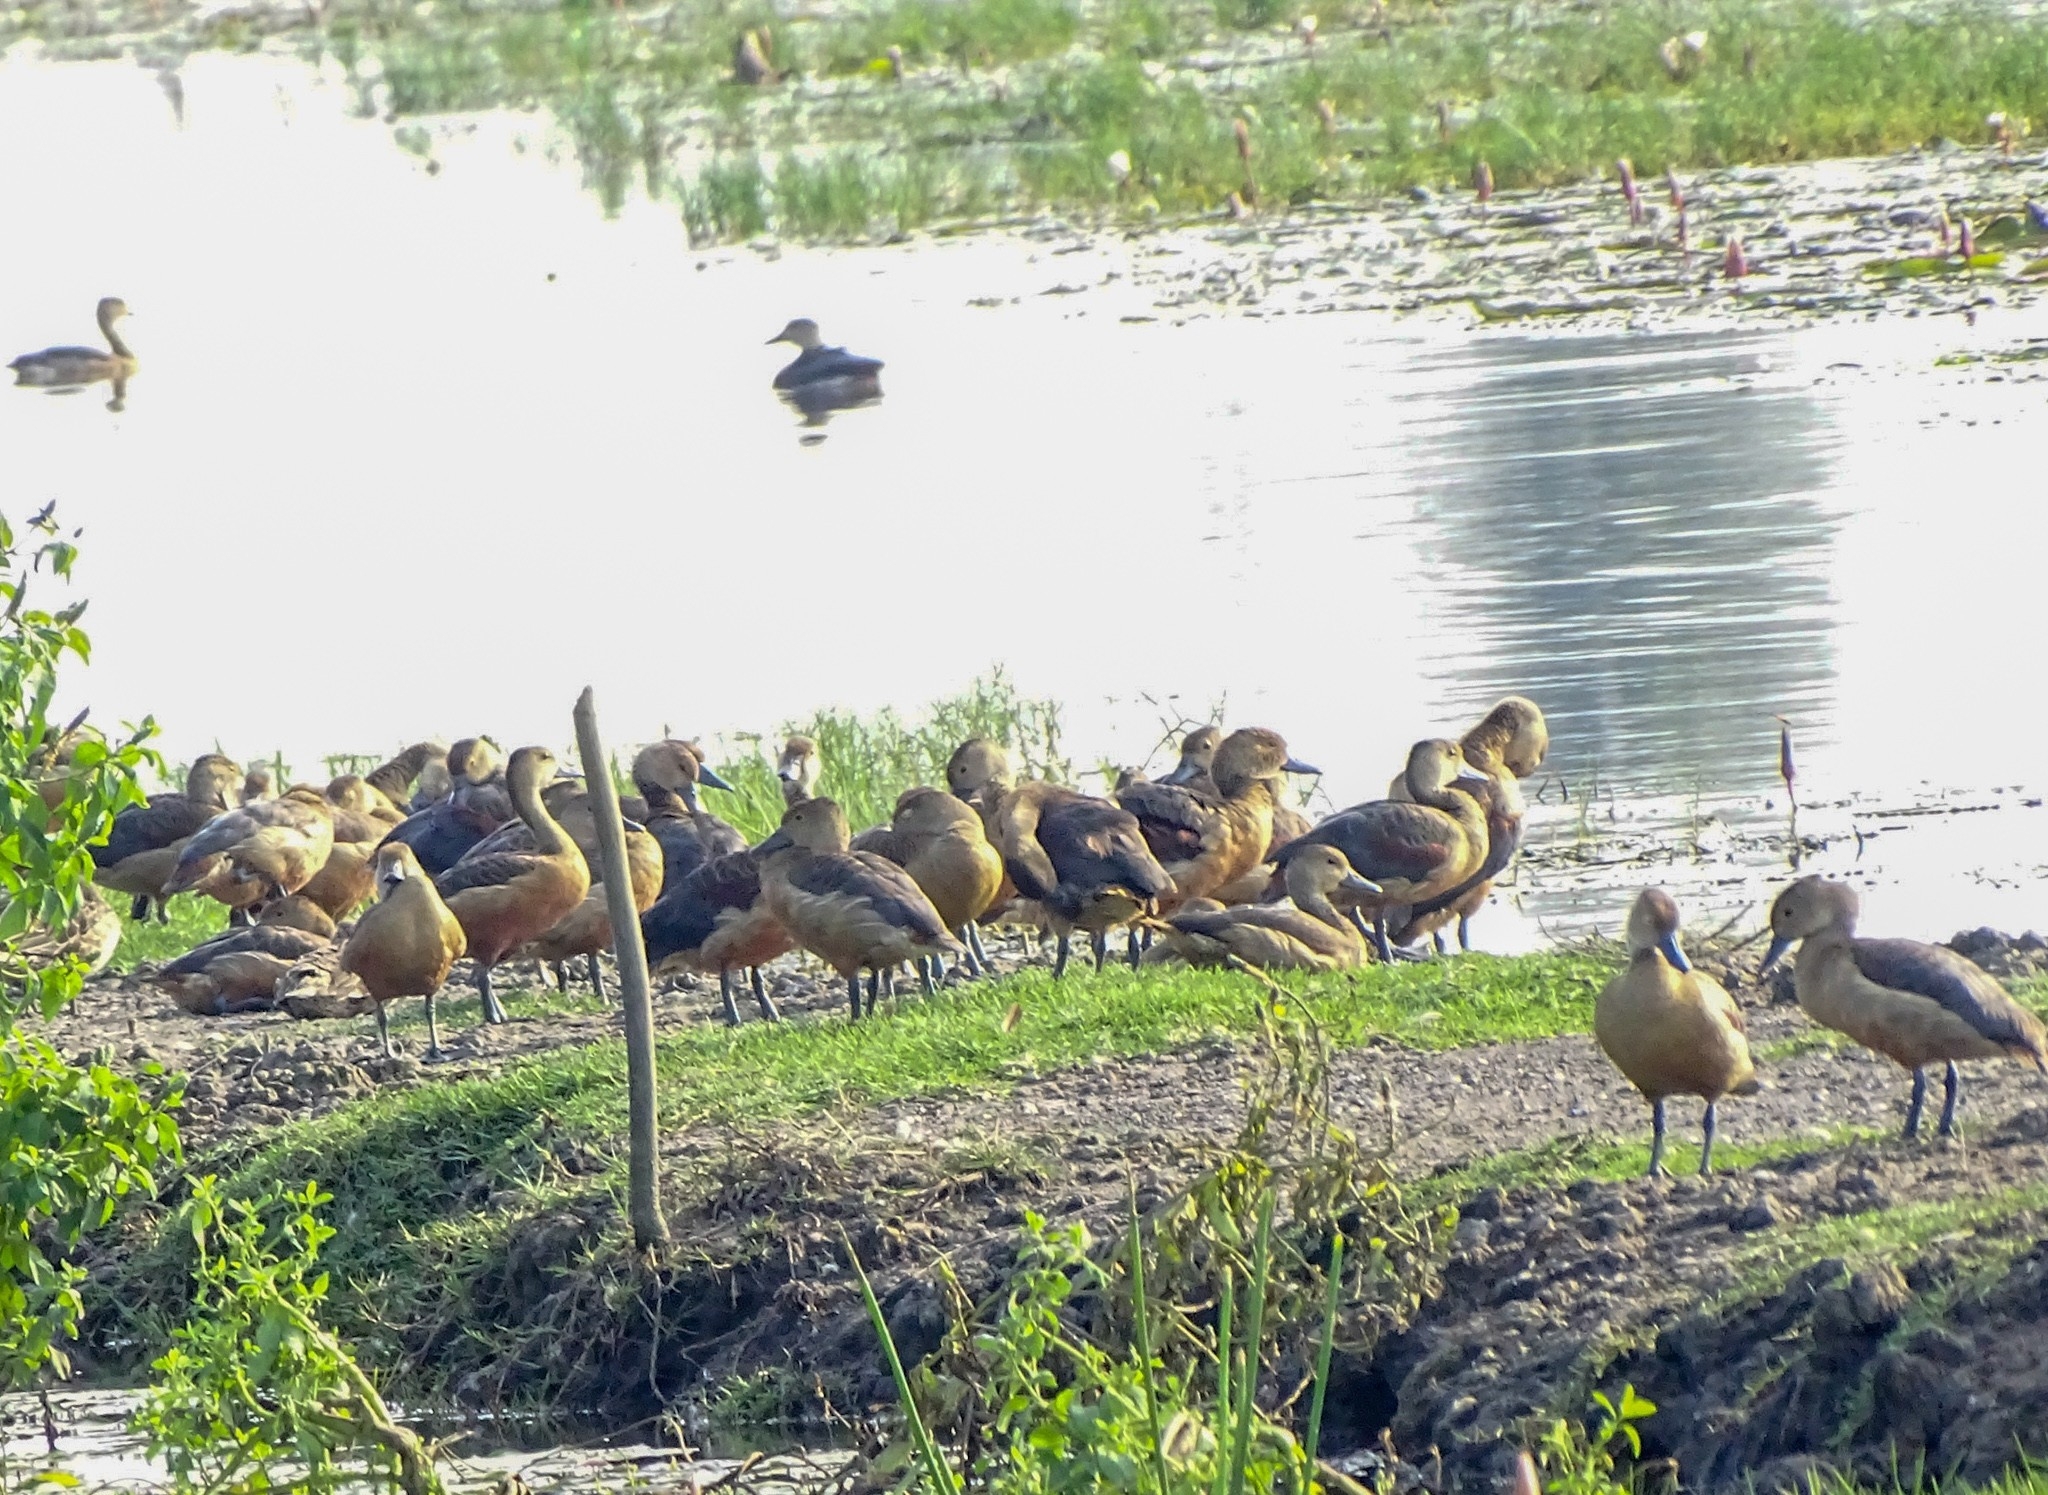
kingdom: Animalia
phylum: Chordata
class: Aves
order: Anseriformes
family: Anatidae
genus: Dendrocygna
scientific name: Dendrocygna javanica
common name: Lesser whistling-duck
